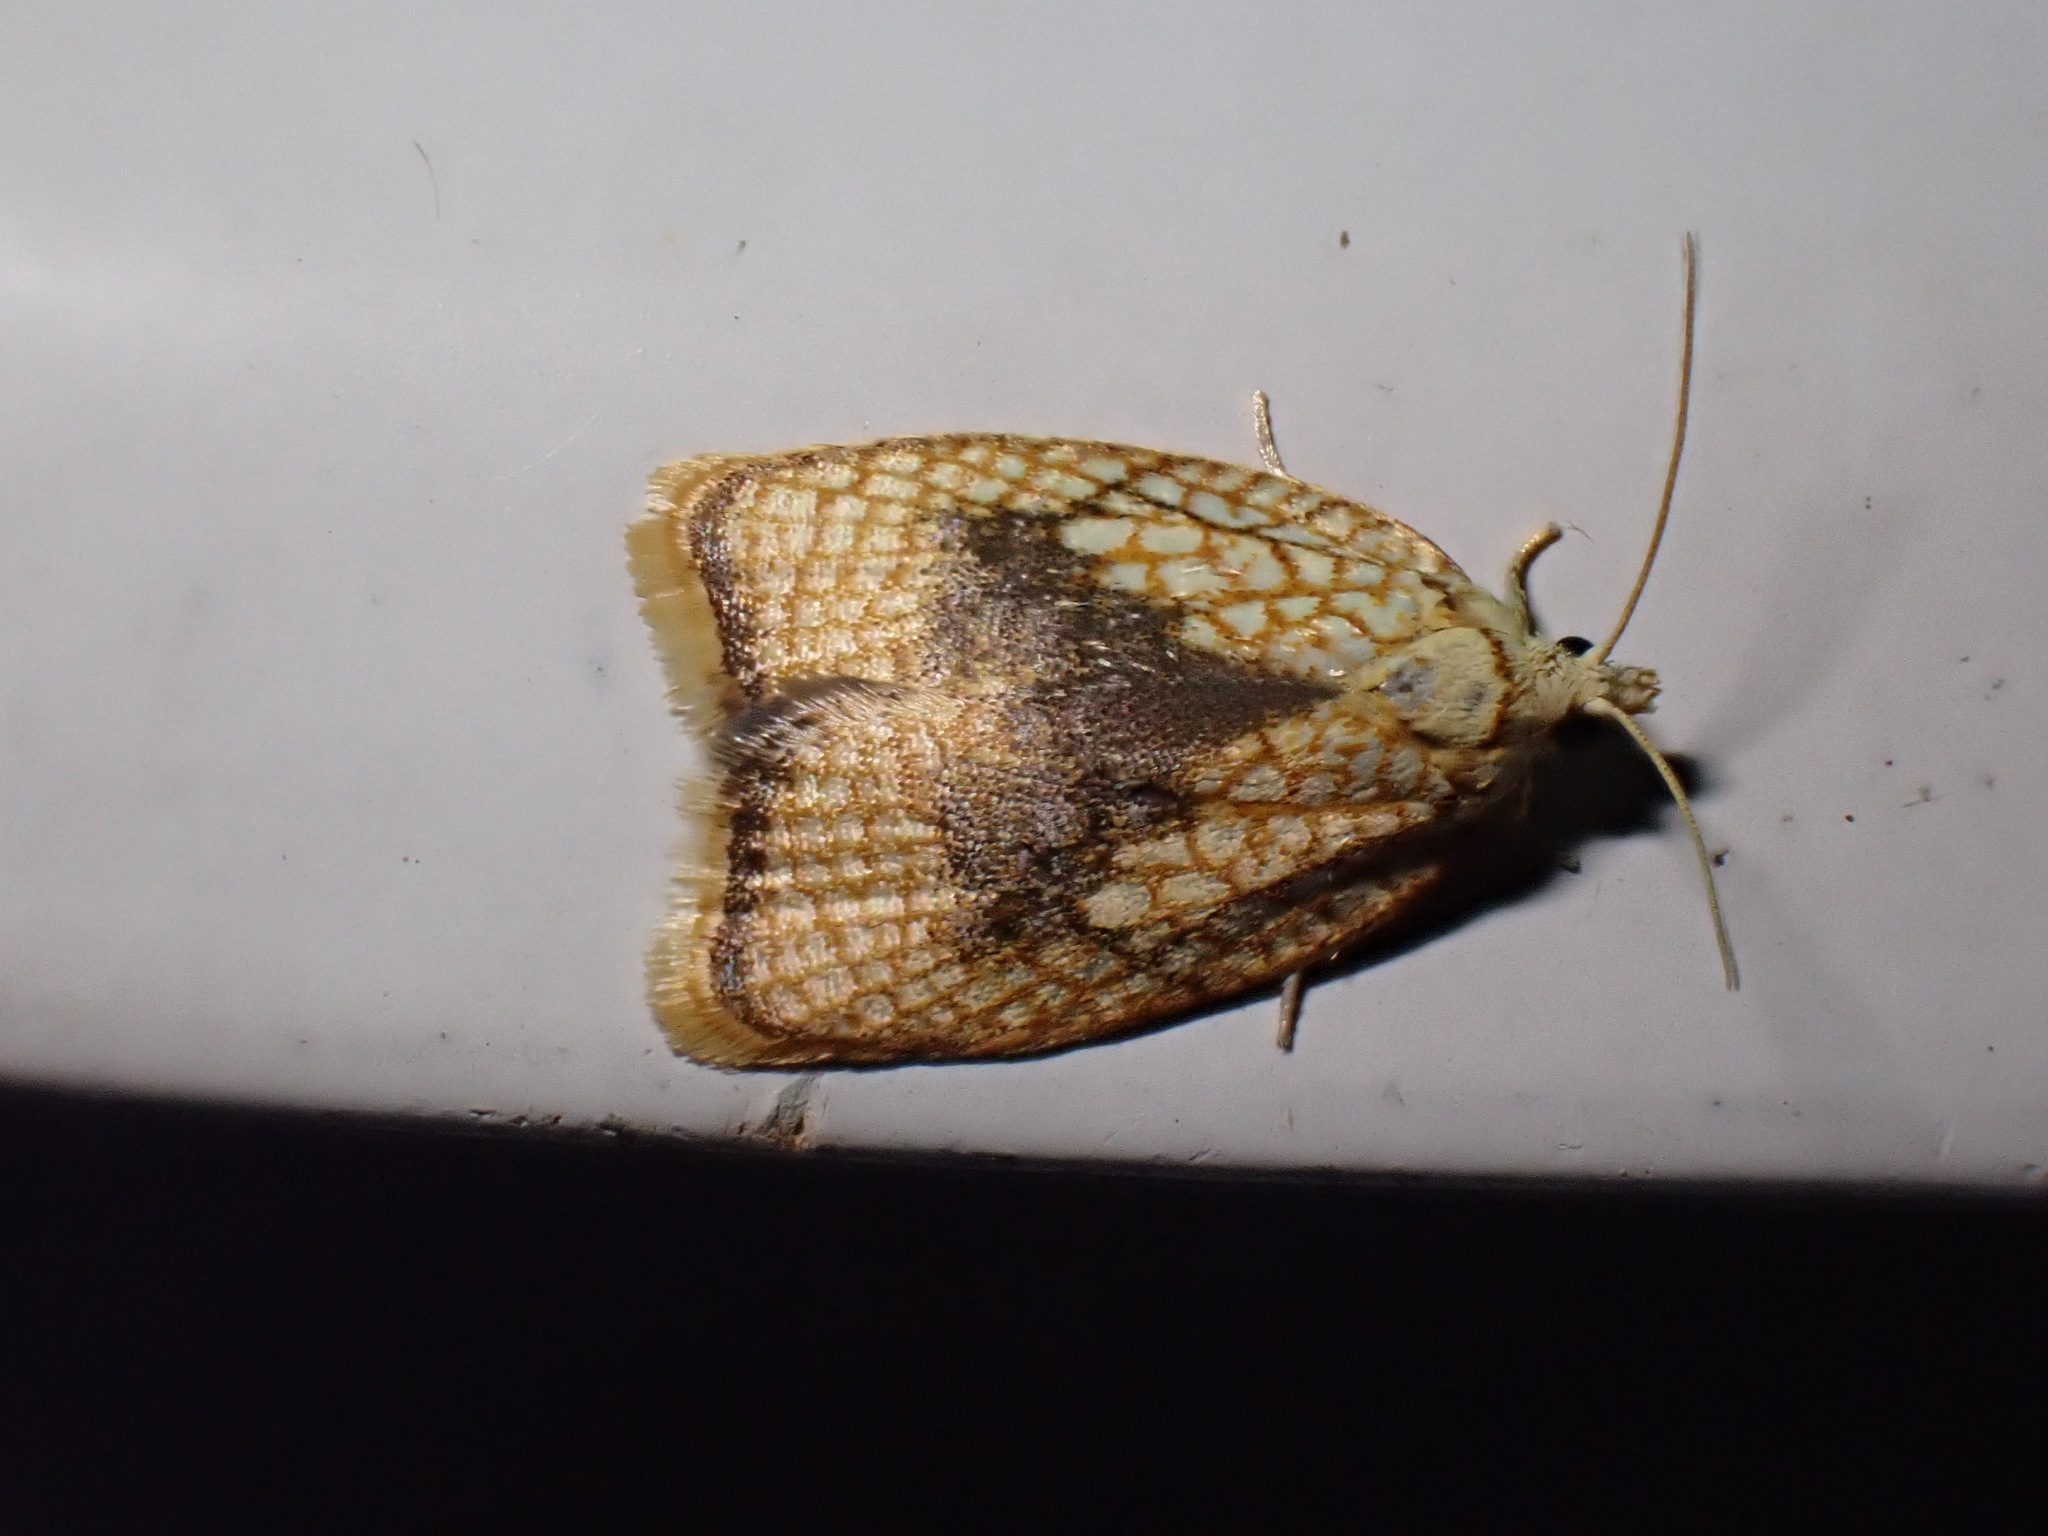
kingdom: Animalia
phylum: Arthropoda
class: Insecta
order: Lepidoptera
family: Tortricidae
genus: Acleris
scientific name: Acleris forsskaleana
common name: Maple button
